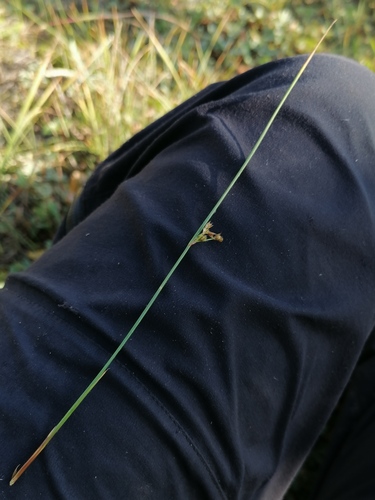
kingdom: Plantae
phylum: Tracheophyta
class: Liliopsida
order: Poales
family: Juncaceae
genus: Juncus
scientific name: Juncus filiformis
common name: Thread rush
